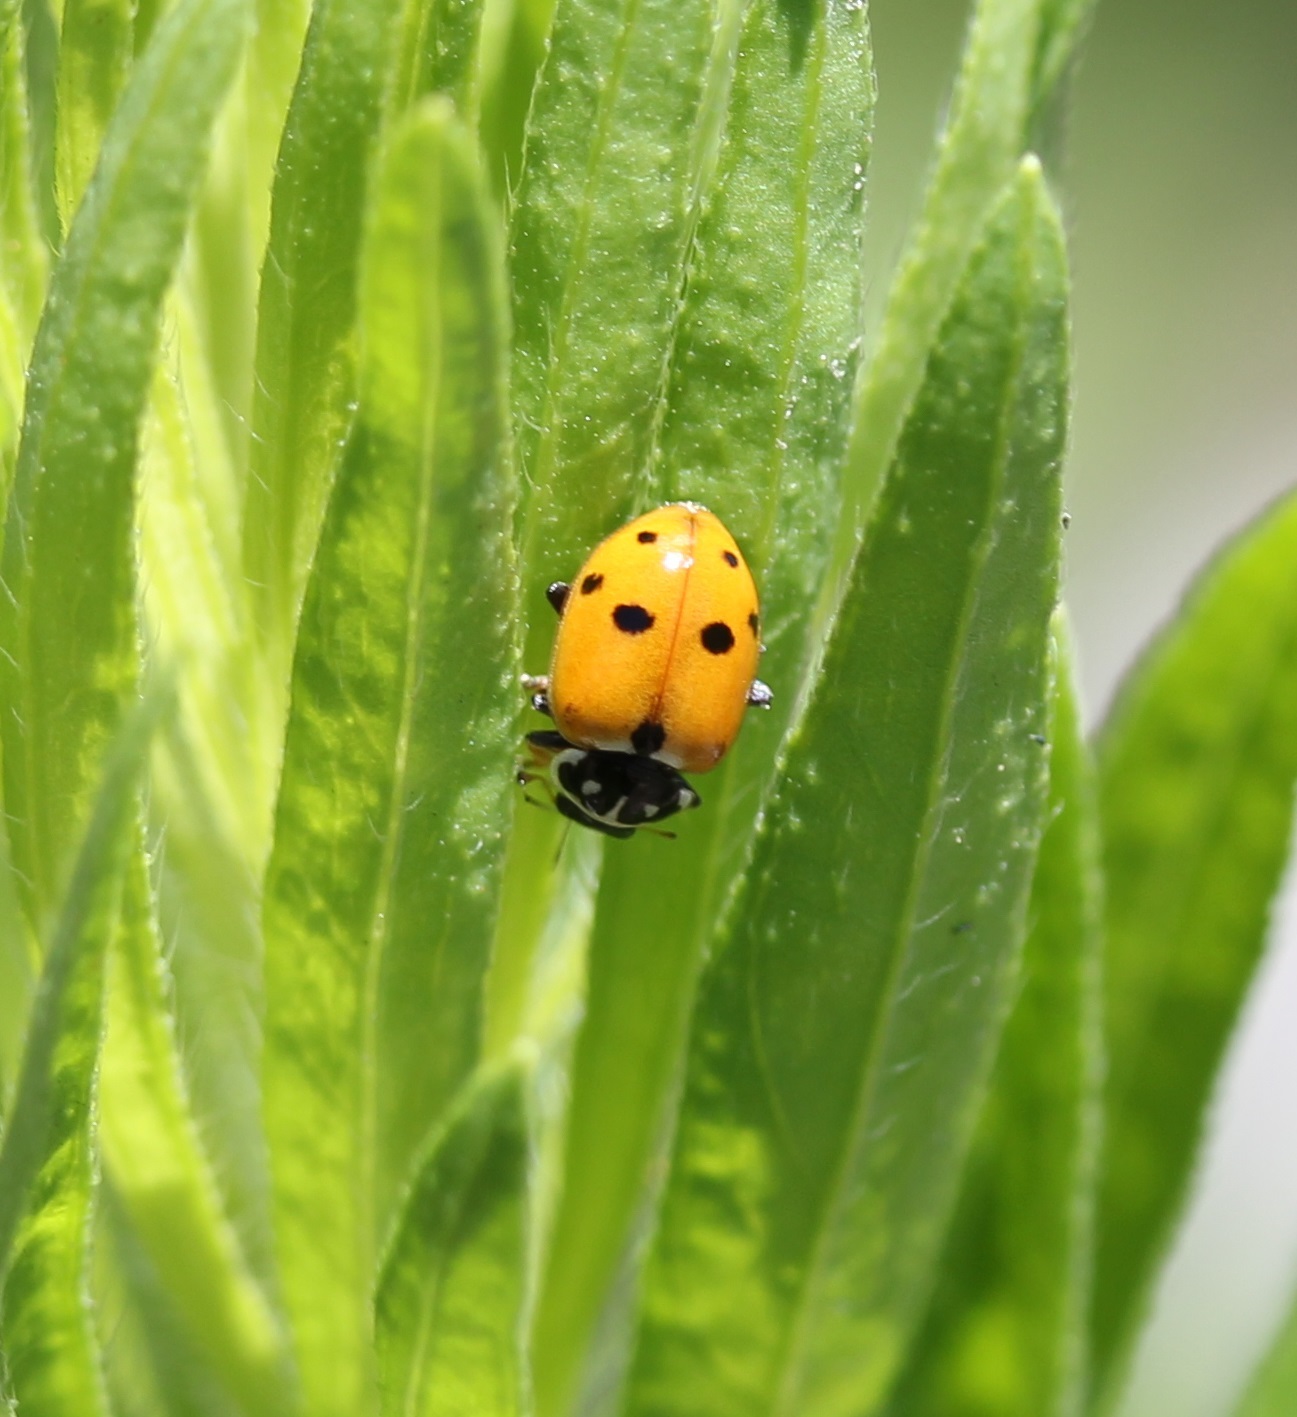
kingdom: Animalia
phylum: Arthropoda
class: Insecta
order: Coleoptera
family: Coccinellidae
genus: Hippodamia
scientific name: Hippodamia variegata
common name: Ladybird beetle
